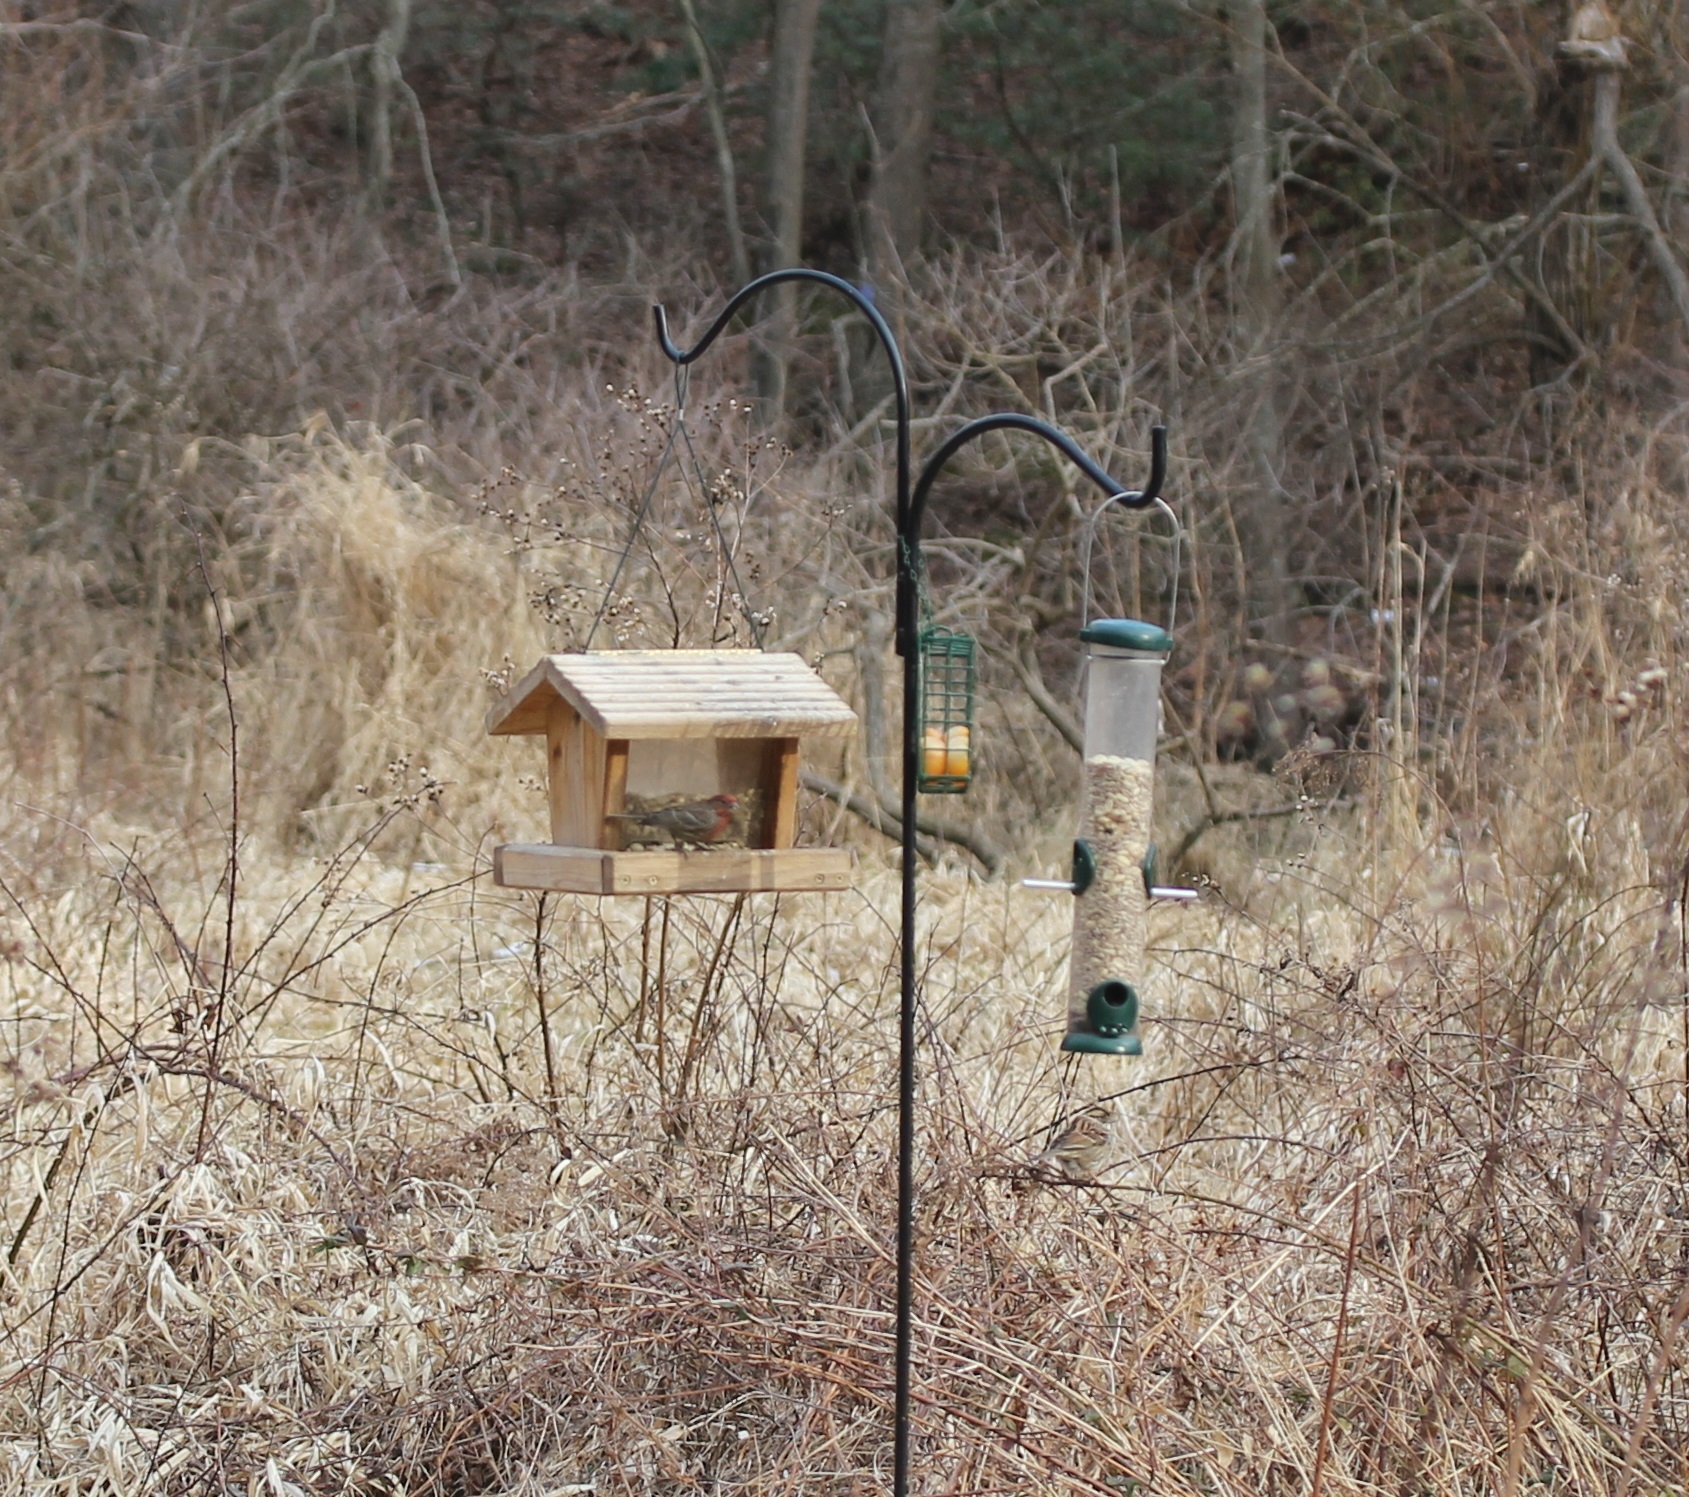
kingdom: Animalia
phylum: Chordata
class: Aves
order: Passeriformes
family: Fringillidae
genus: Haemorhous
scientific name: Haemorhous mexicanus
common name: House finch
